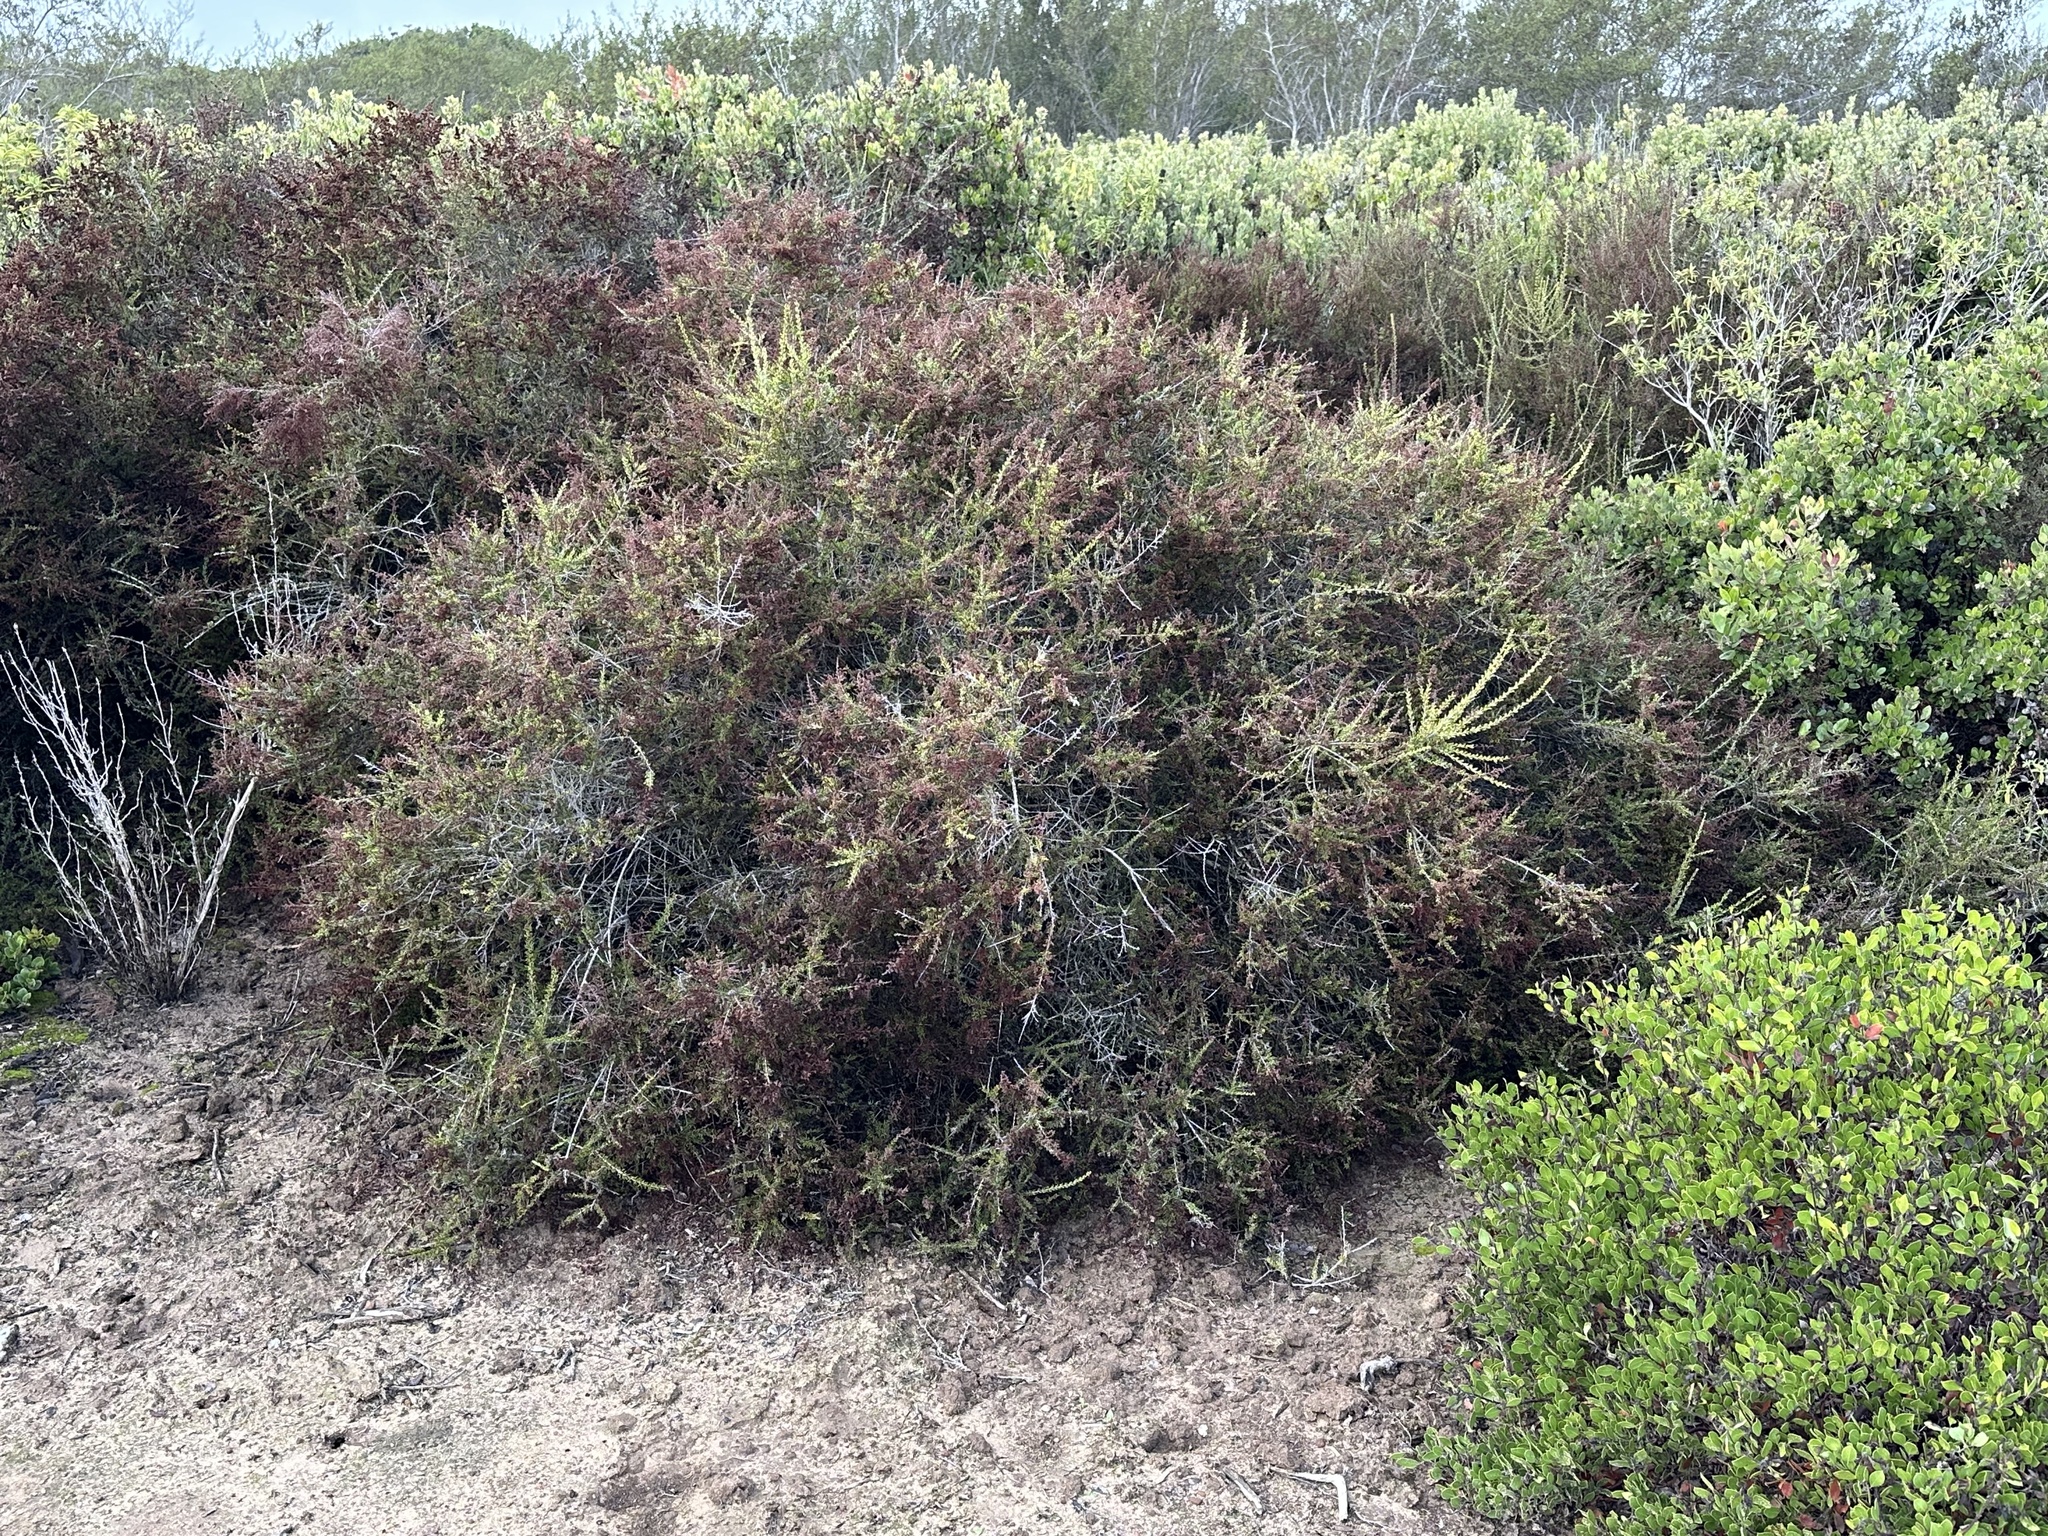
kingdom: Plantae
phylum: Tracheophyta
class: Magnoliopsida
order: Rosales
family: Rosaceae
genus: Adenostoma
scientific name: Adenostoma fasciculatum
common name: Chamise
